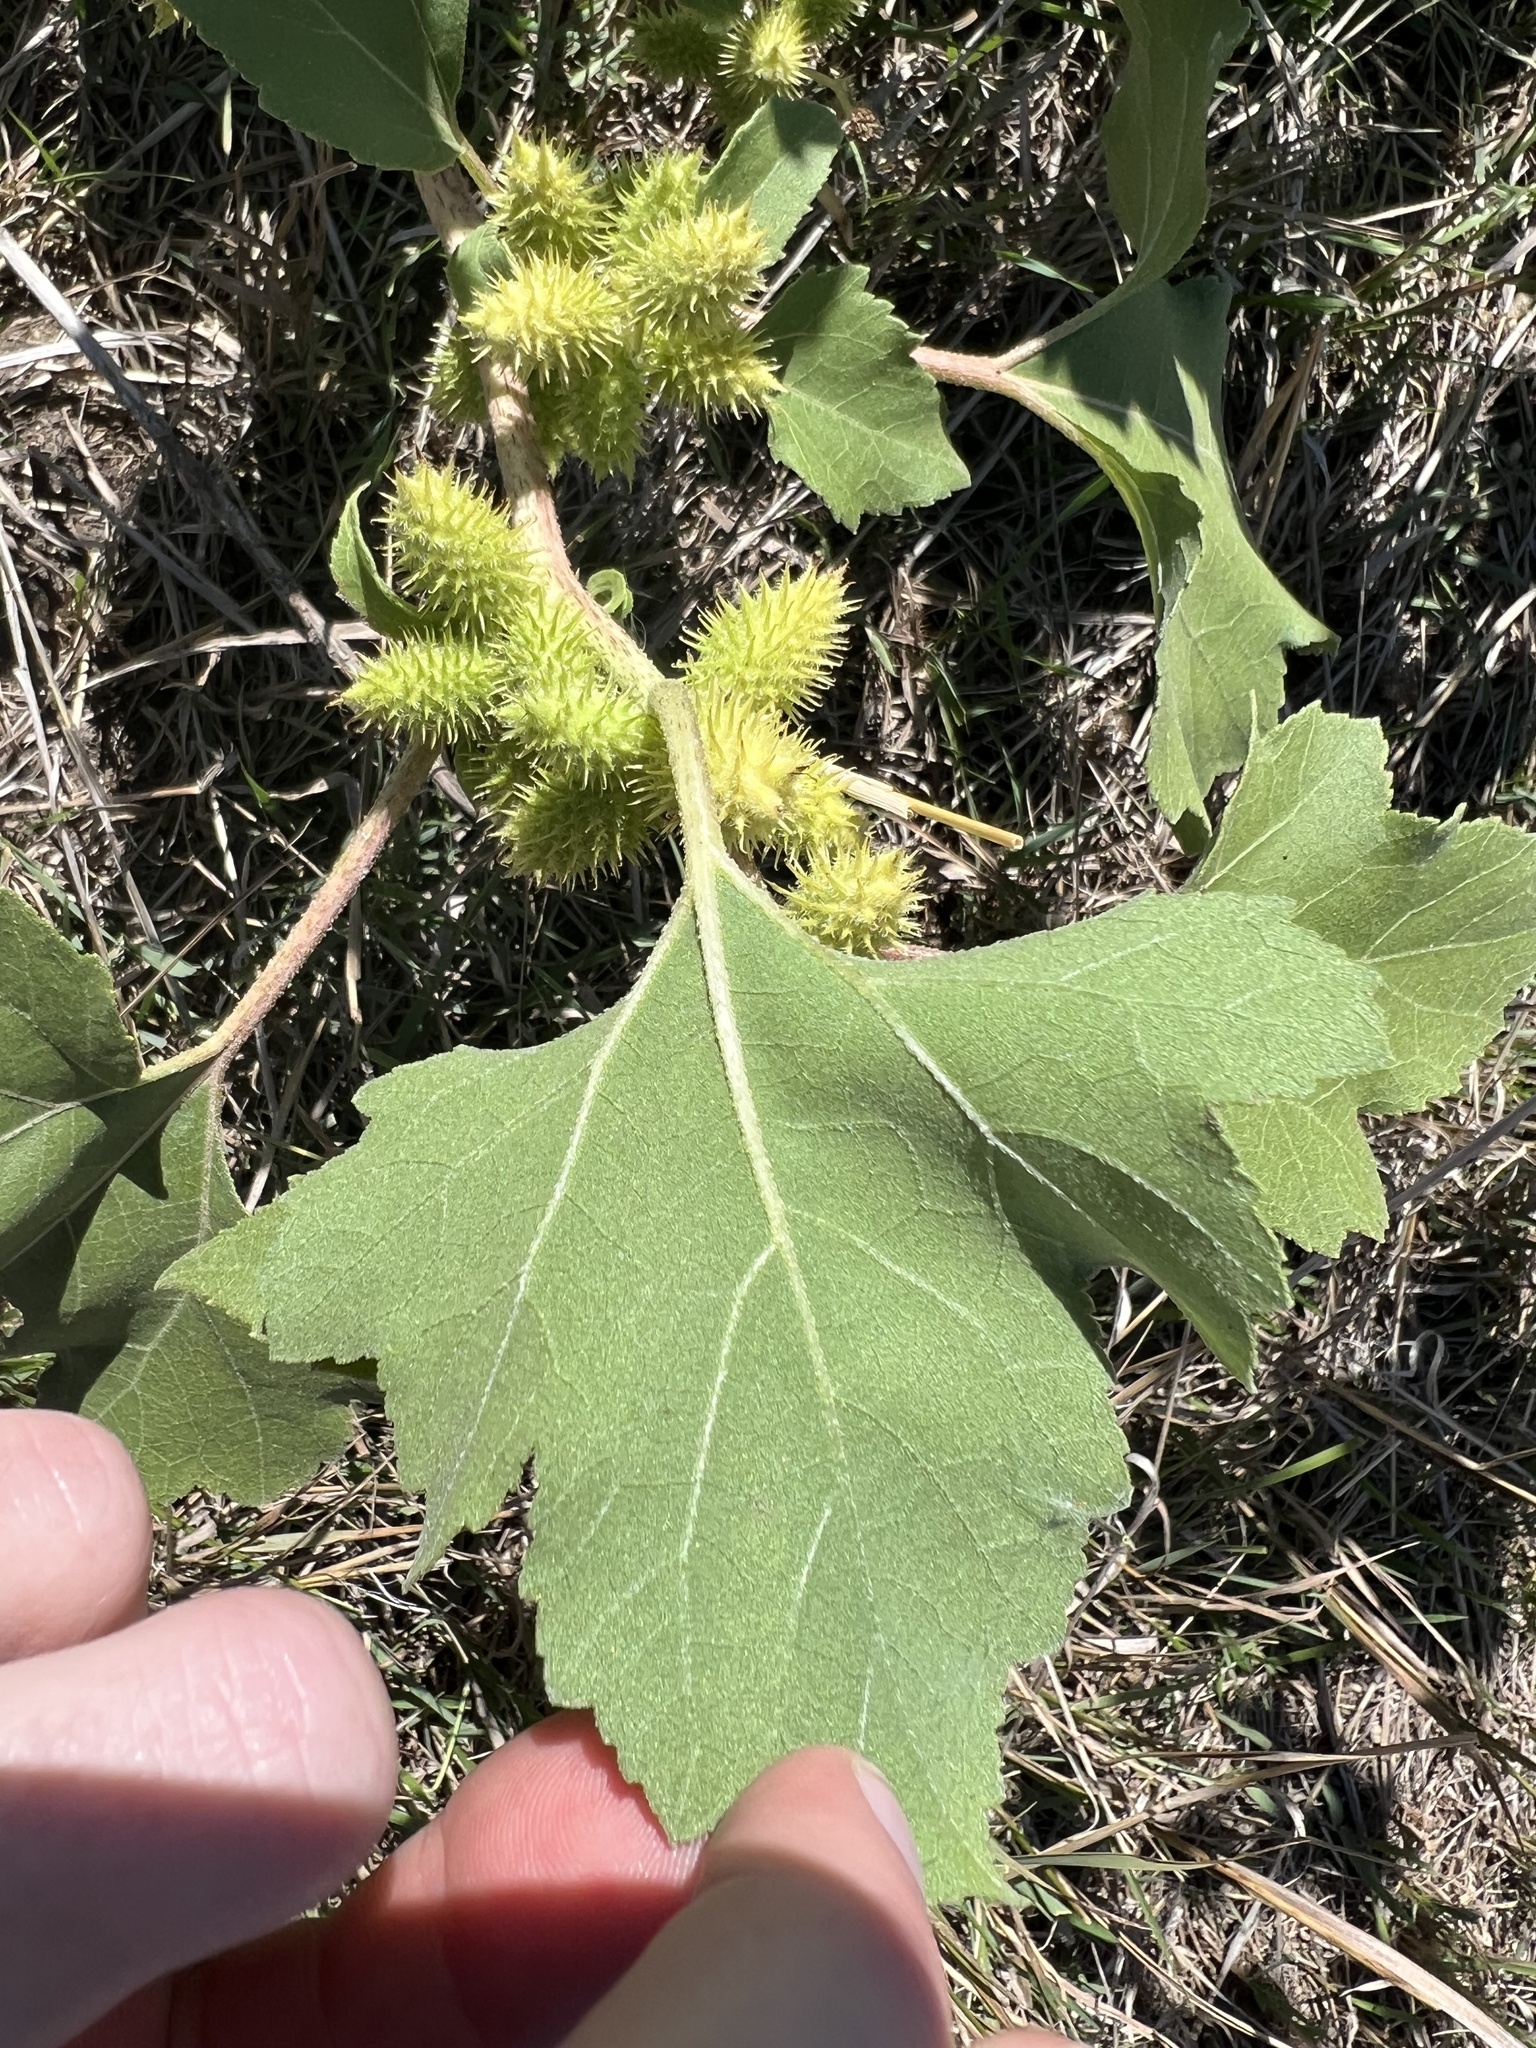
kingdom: Plantae
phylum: Tracheophyta
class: Magnoliopsida
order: Asterales
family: Asteraceae
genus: Xanthium
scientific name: Xanthium strumarium
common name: Rough cocklebur
